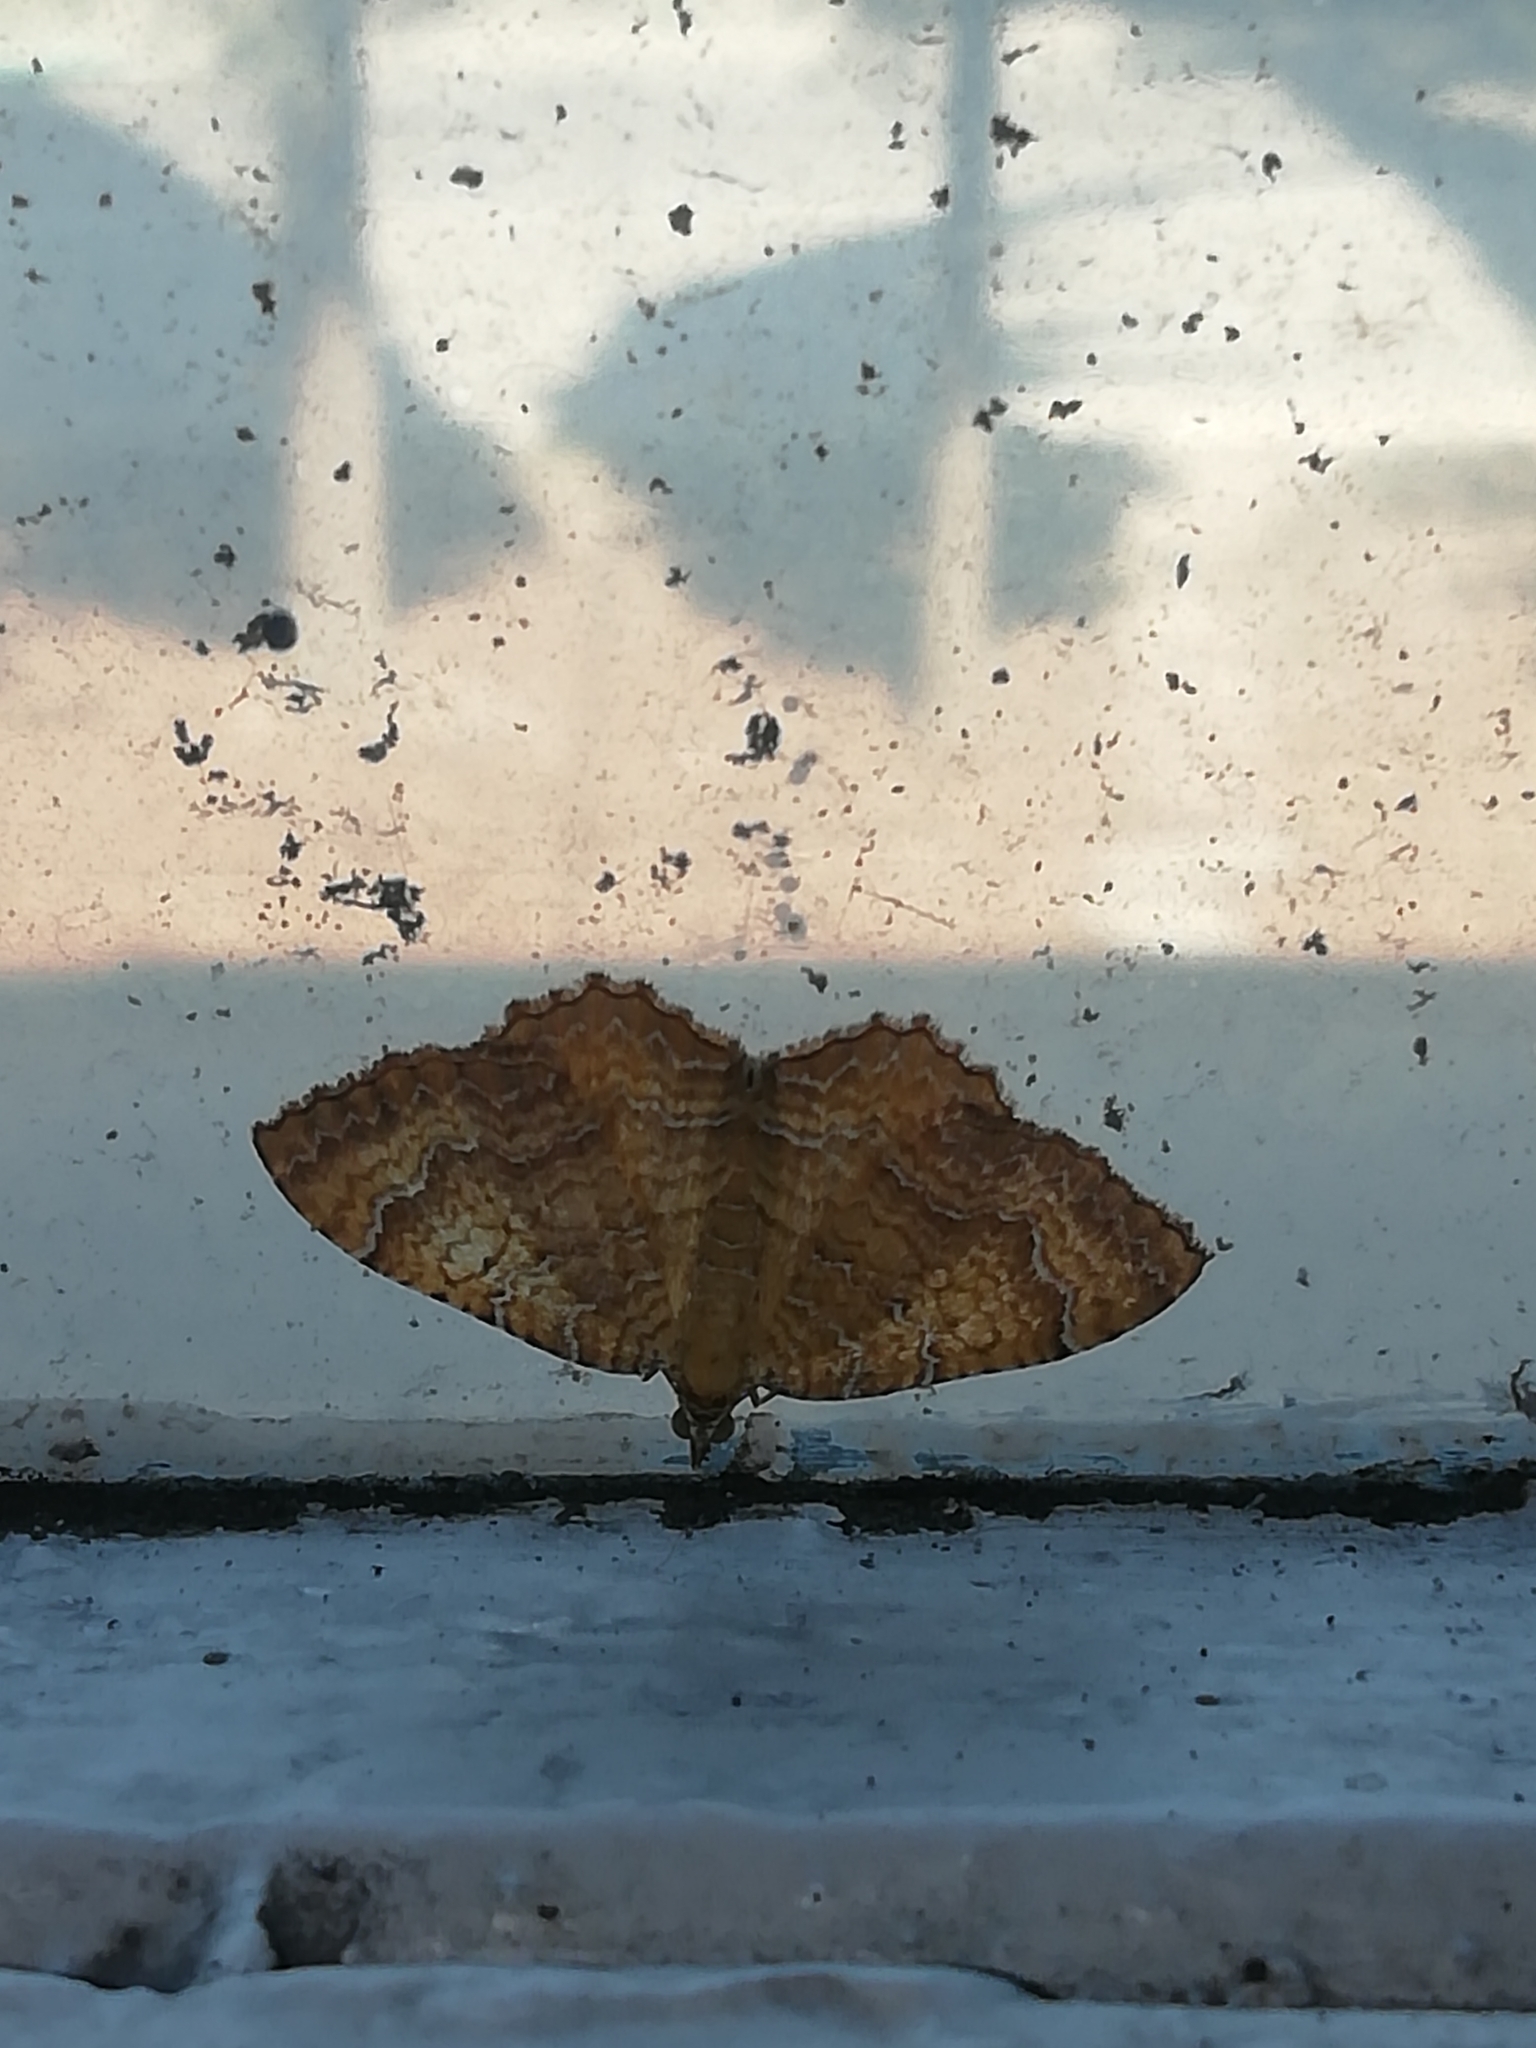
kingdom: Animalia
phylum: Arthropoda
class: Insecta
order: Lepidoptera
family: Geometridae
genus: Camptogramma
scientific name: Camptogramma bilineata
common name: Yellow shell
